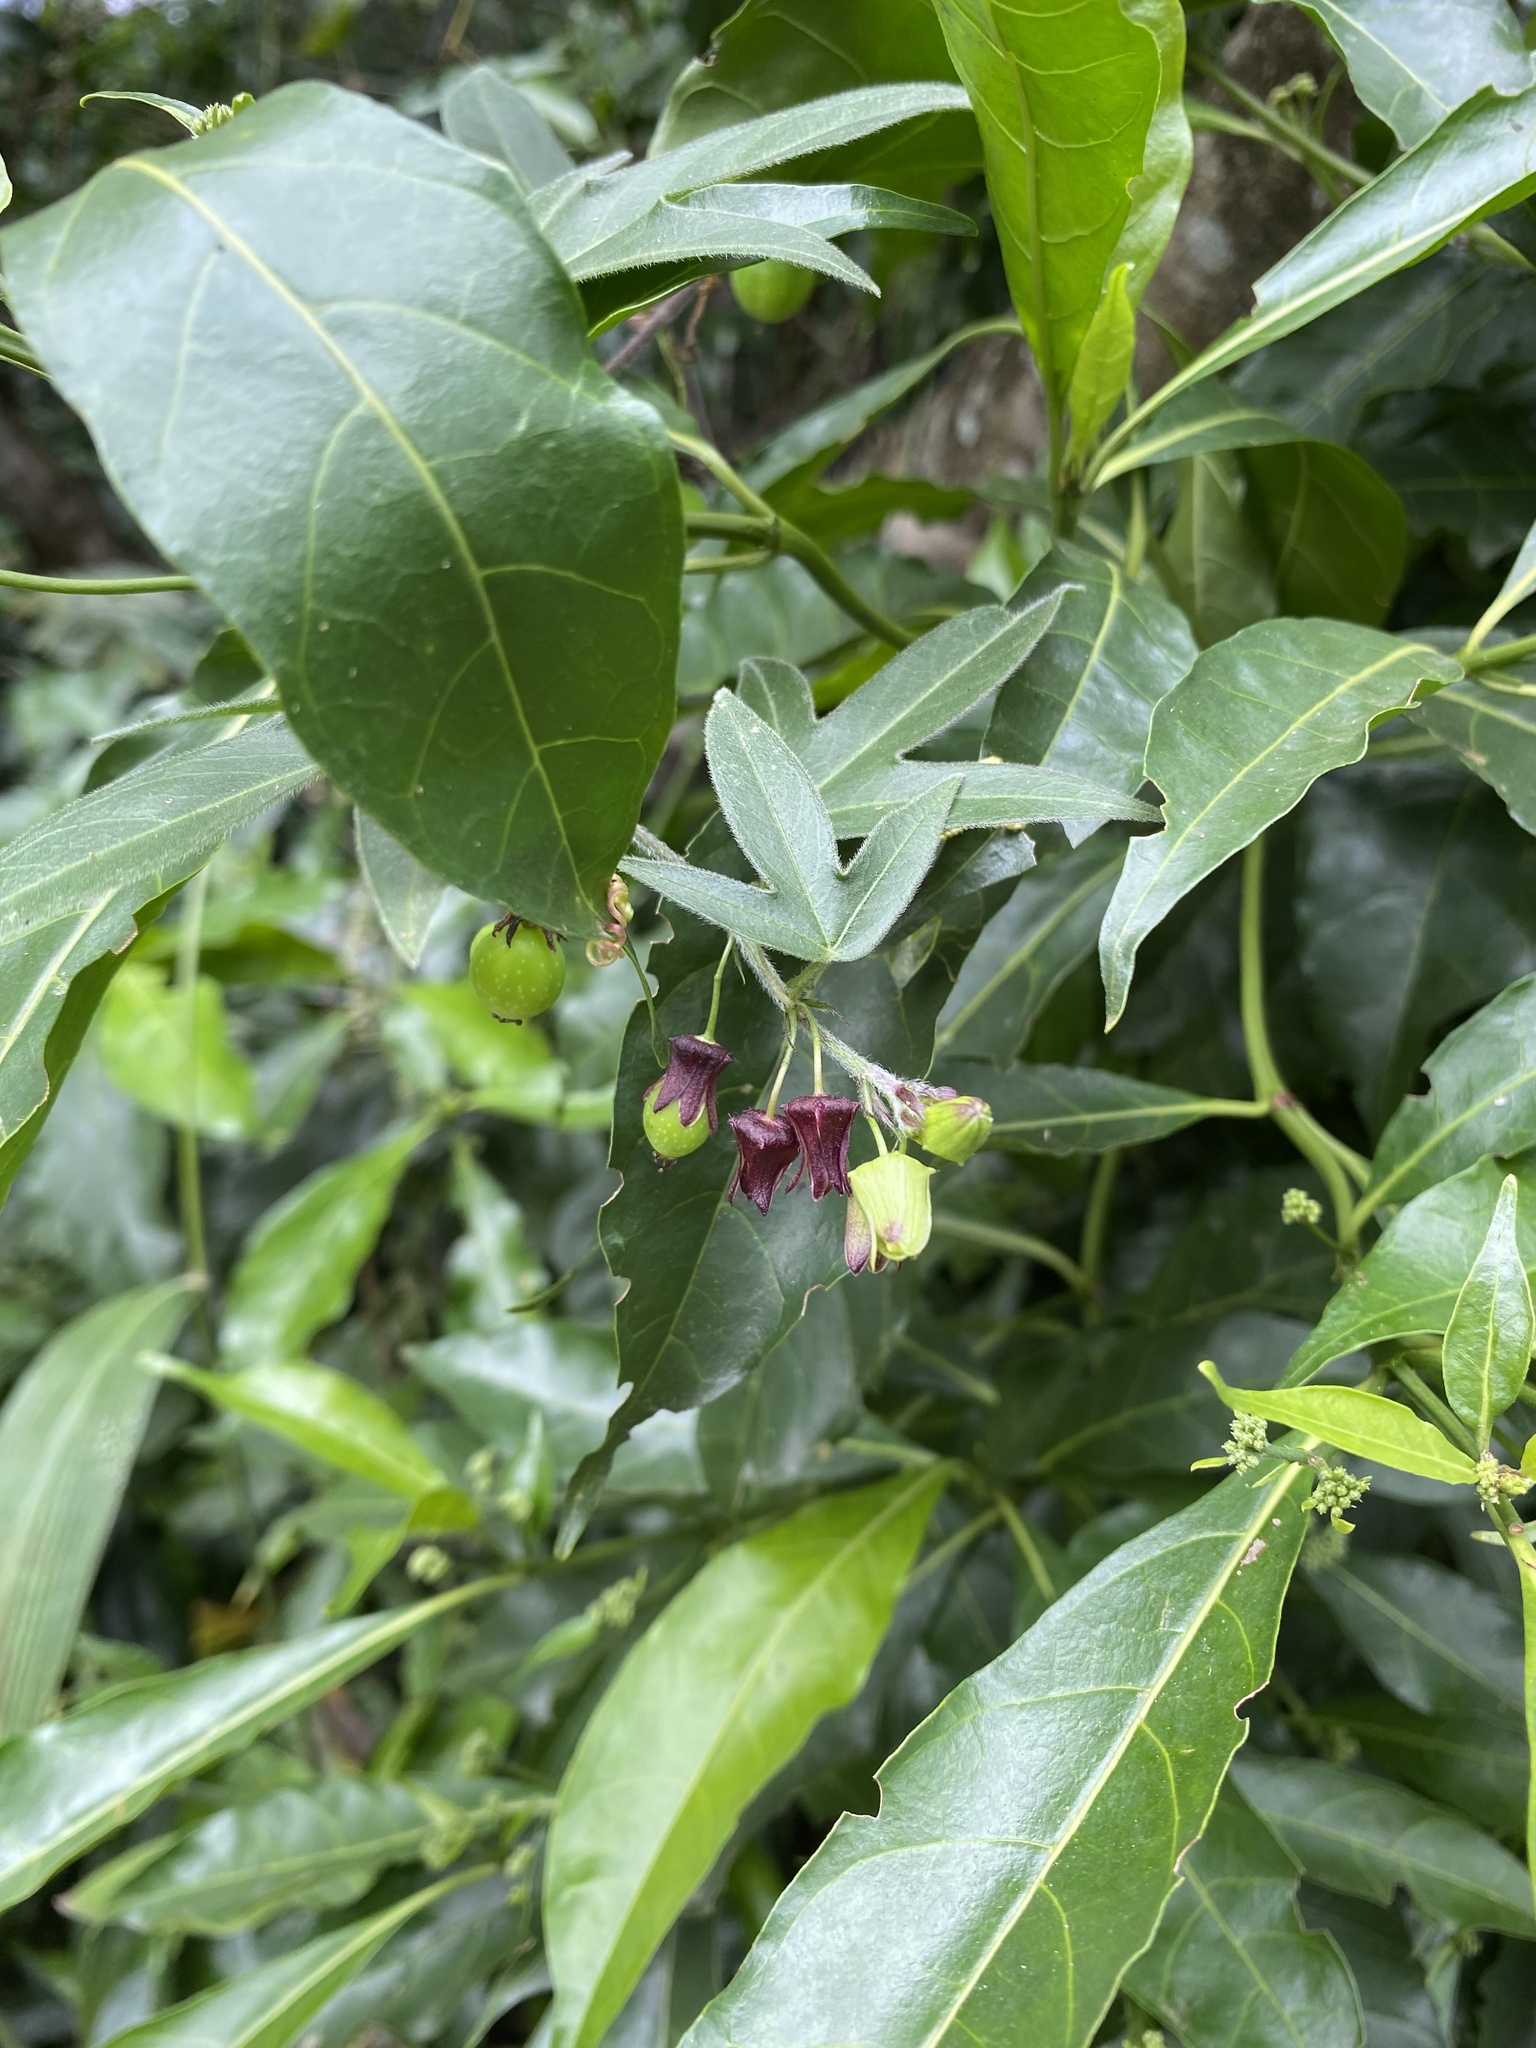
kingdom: Plantae
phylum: Tracheophyta
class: Magnoliopsida
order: Malpighiales
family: Passifloraceae
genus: Passiflora
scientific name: Passiflora suberosa
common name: Wild passionfruit
